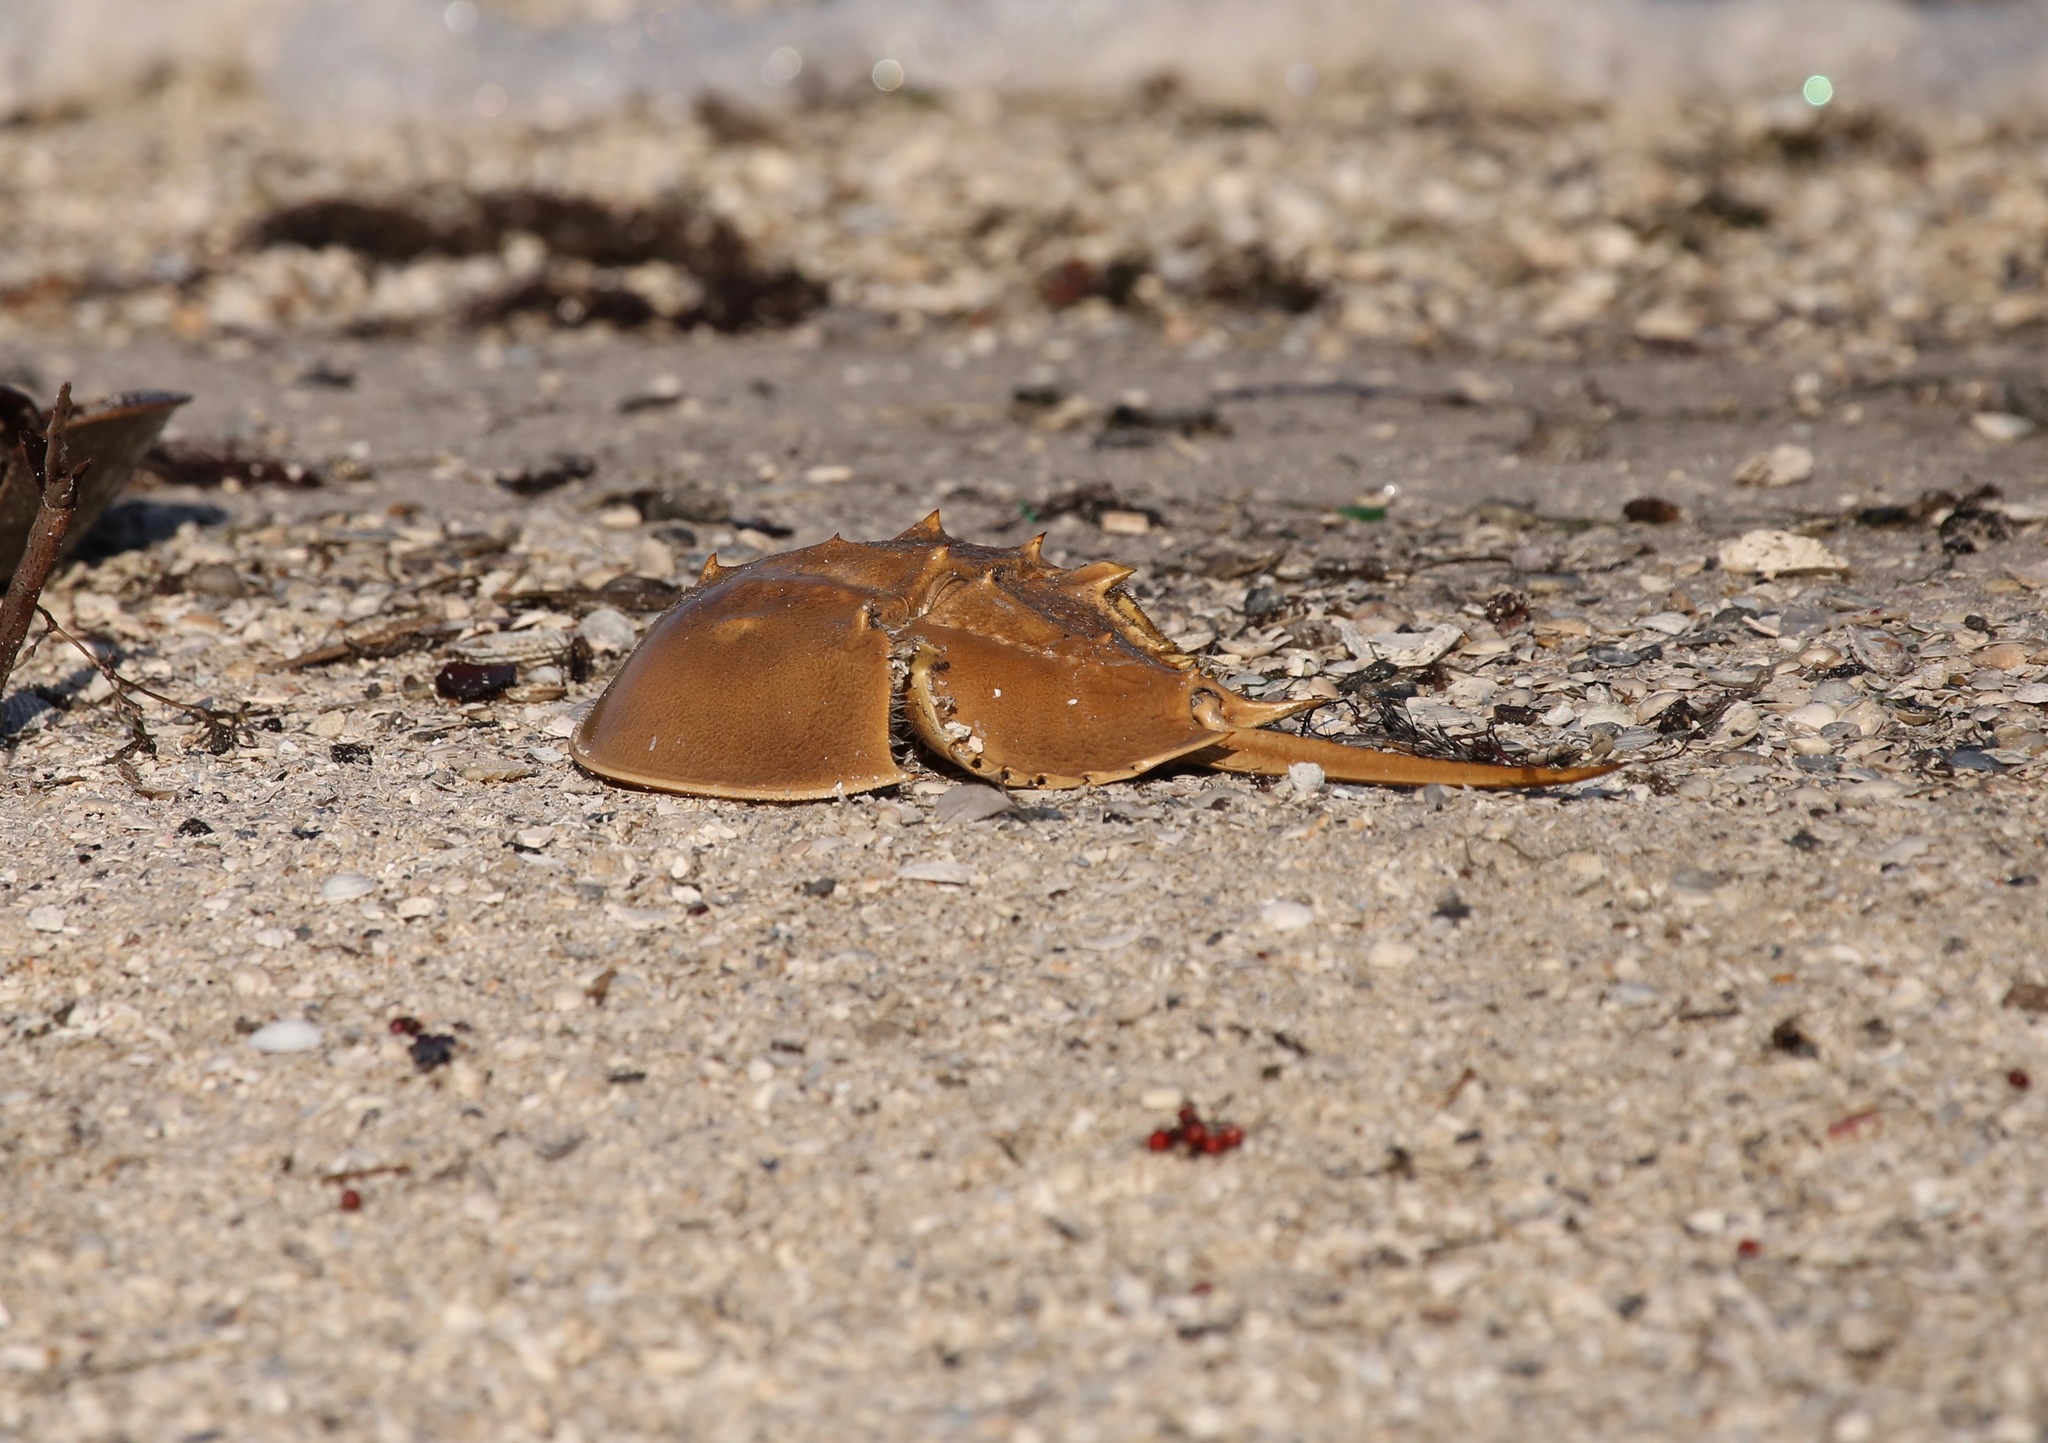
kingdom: Animalia
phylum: Arthropoda
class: Merostomata
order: Xiphosurida
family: Limulidae
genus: Limulus
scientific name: Limulus polyphemus
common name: Horseshoe crab
